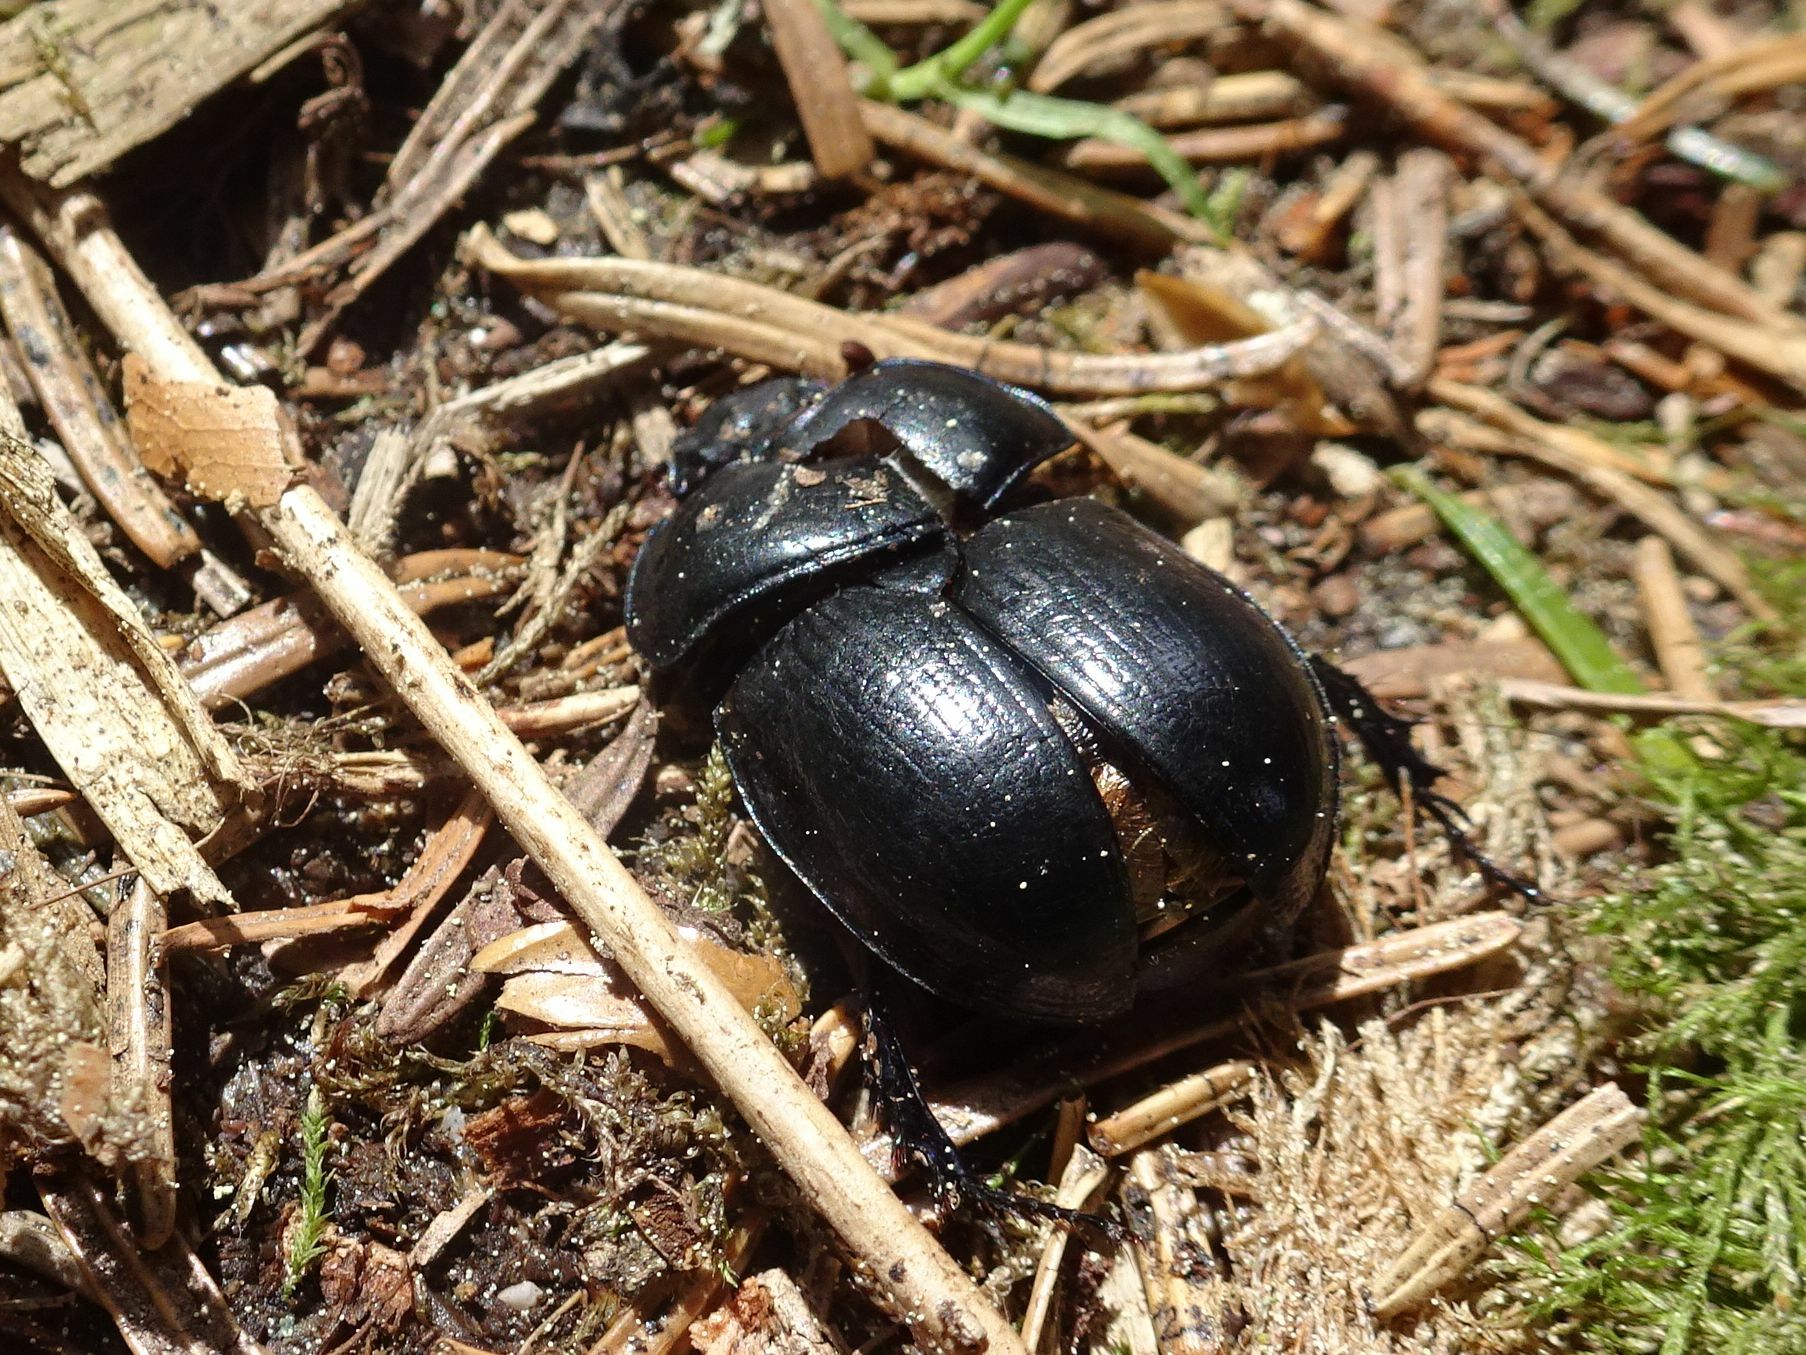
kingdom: Animalia
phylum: Arthropoda
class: Insecta
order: Coleoptera
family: Geotrupidae
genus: Anoplotrupes
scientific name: Anoplotrupes stercorosus
